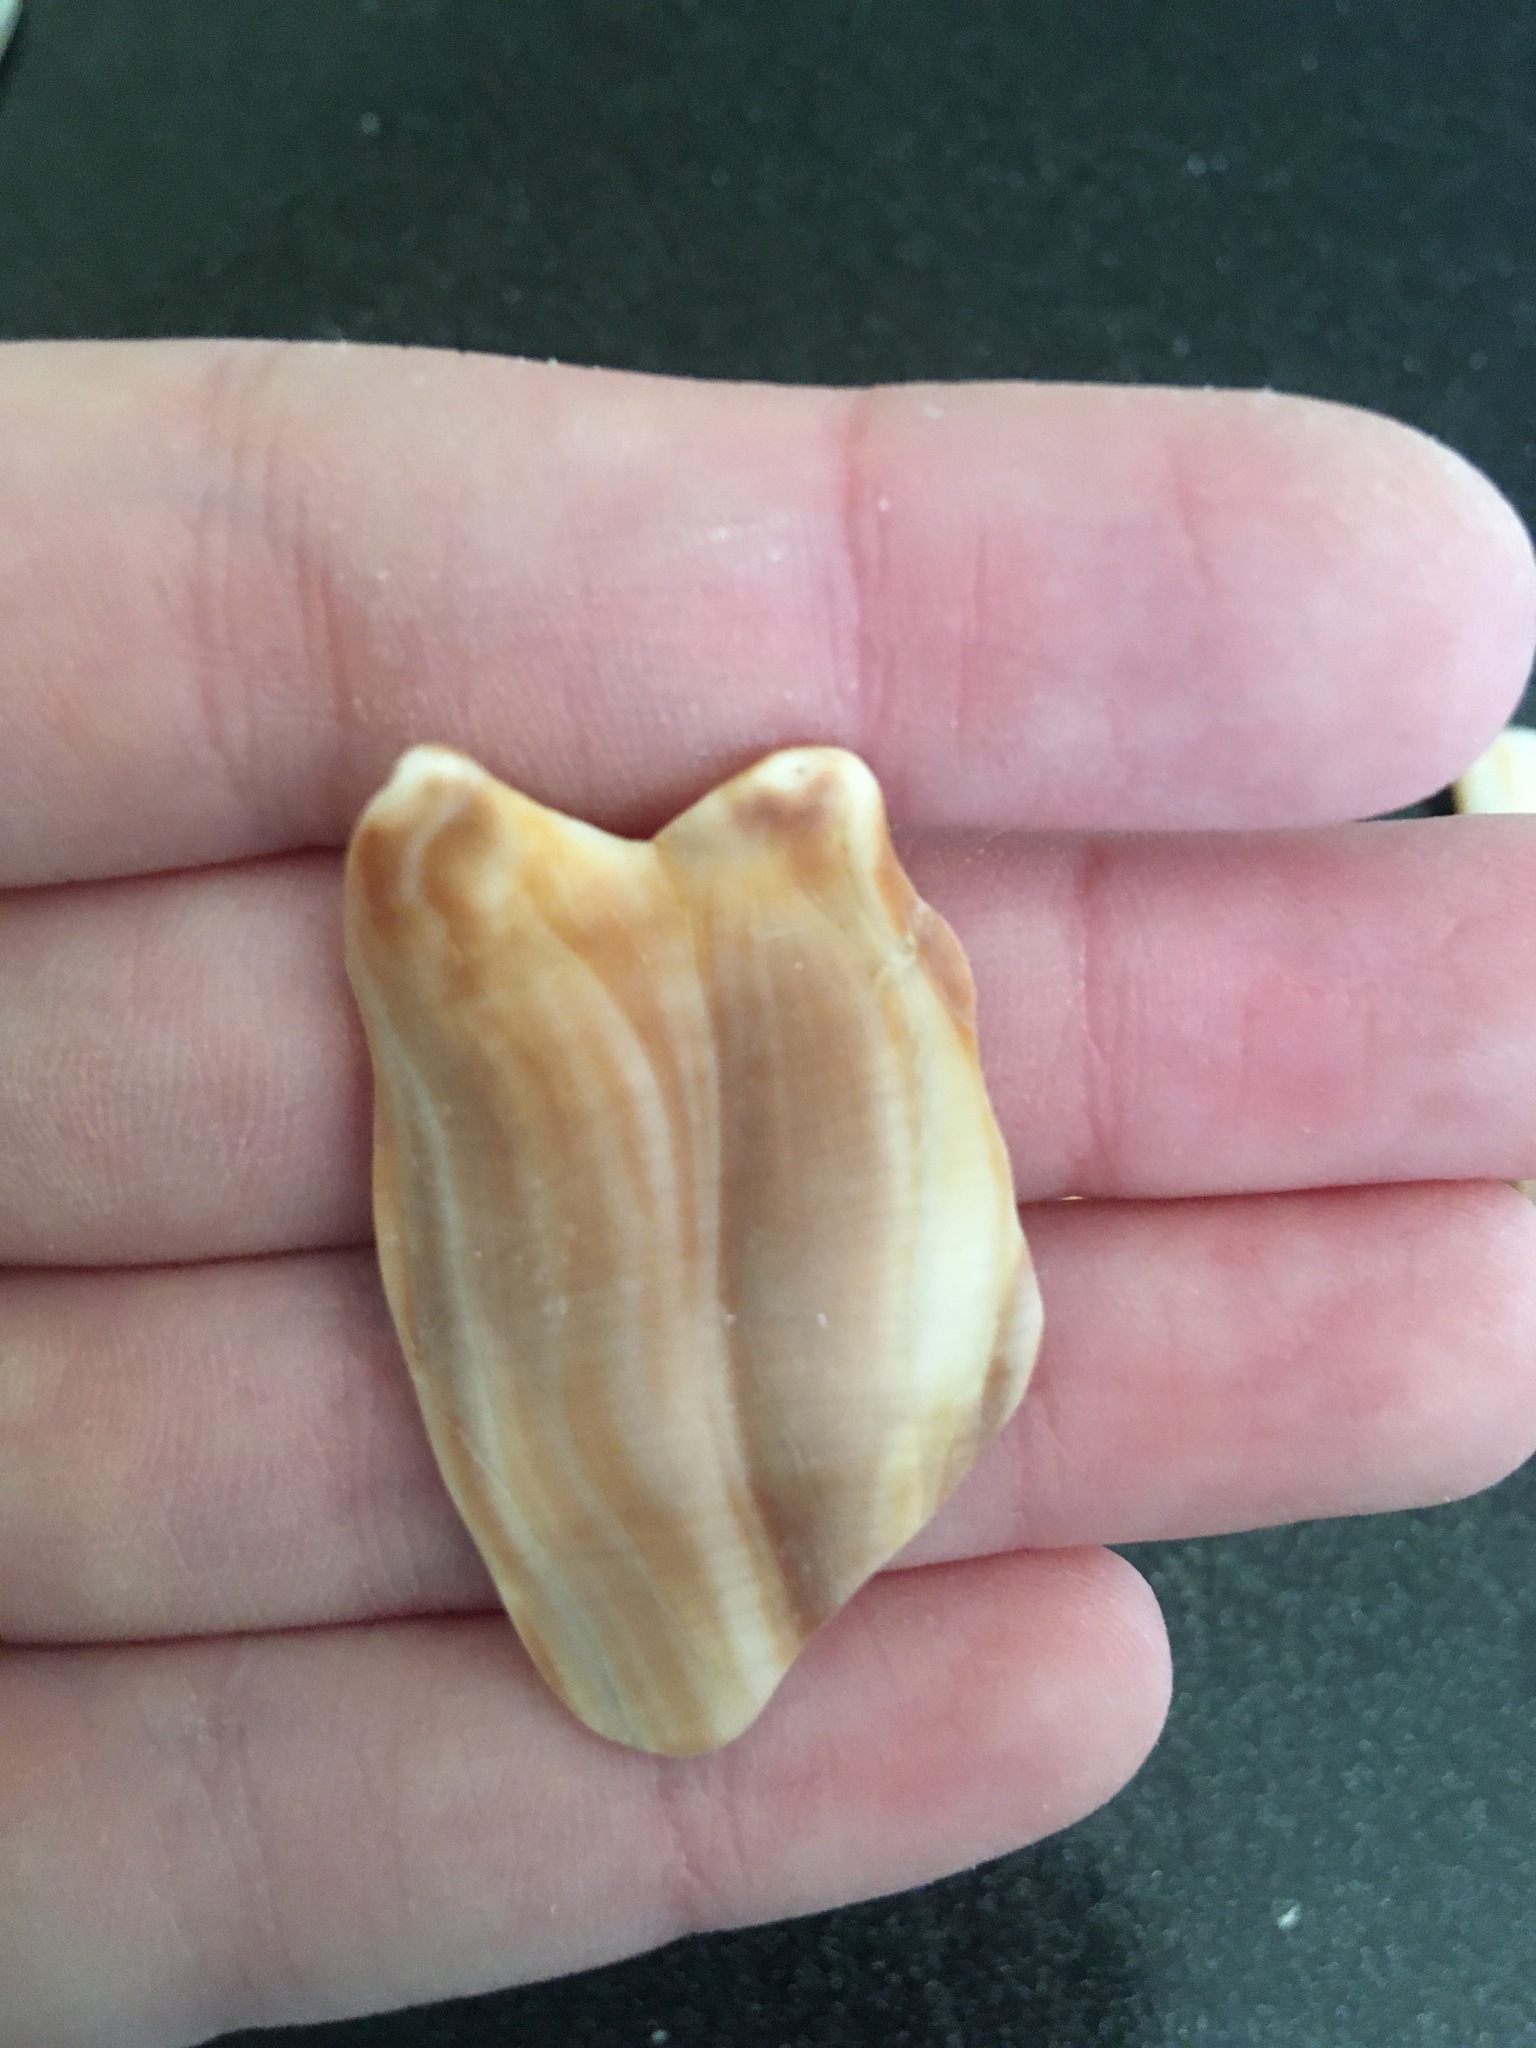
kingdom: Animalia
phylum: Mollusca
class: Gastropoda
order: Neogastropoda
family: Busyconidae
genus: Busycon
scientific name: Busycon carica
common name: Knobbed whelk
